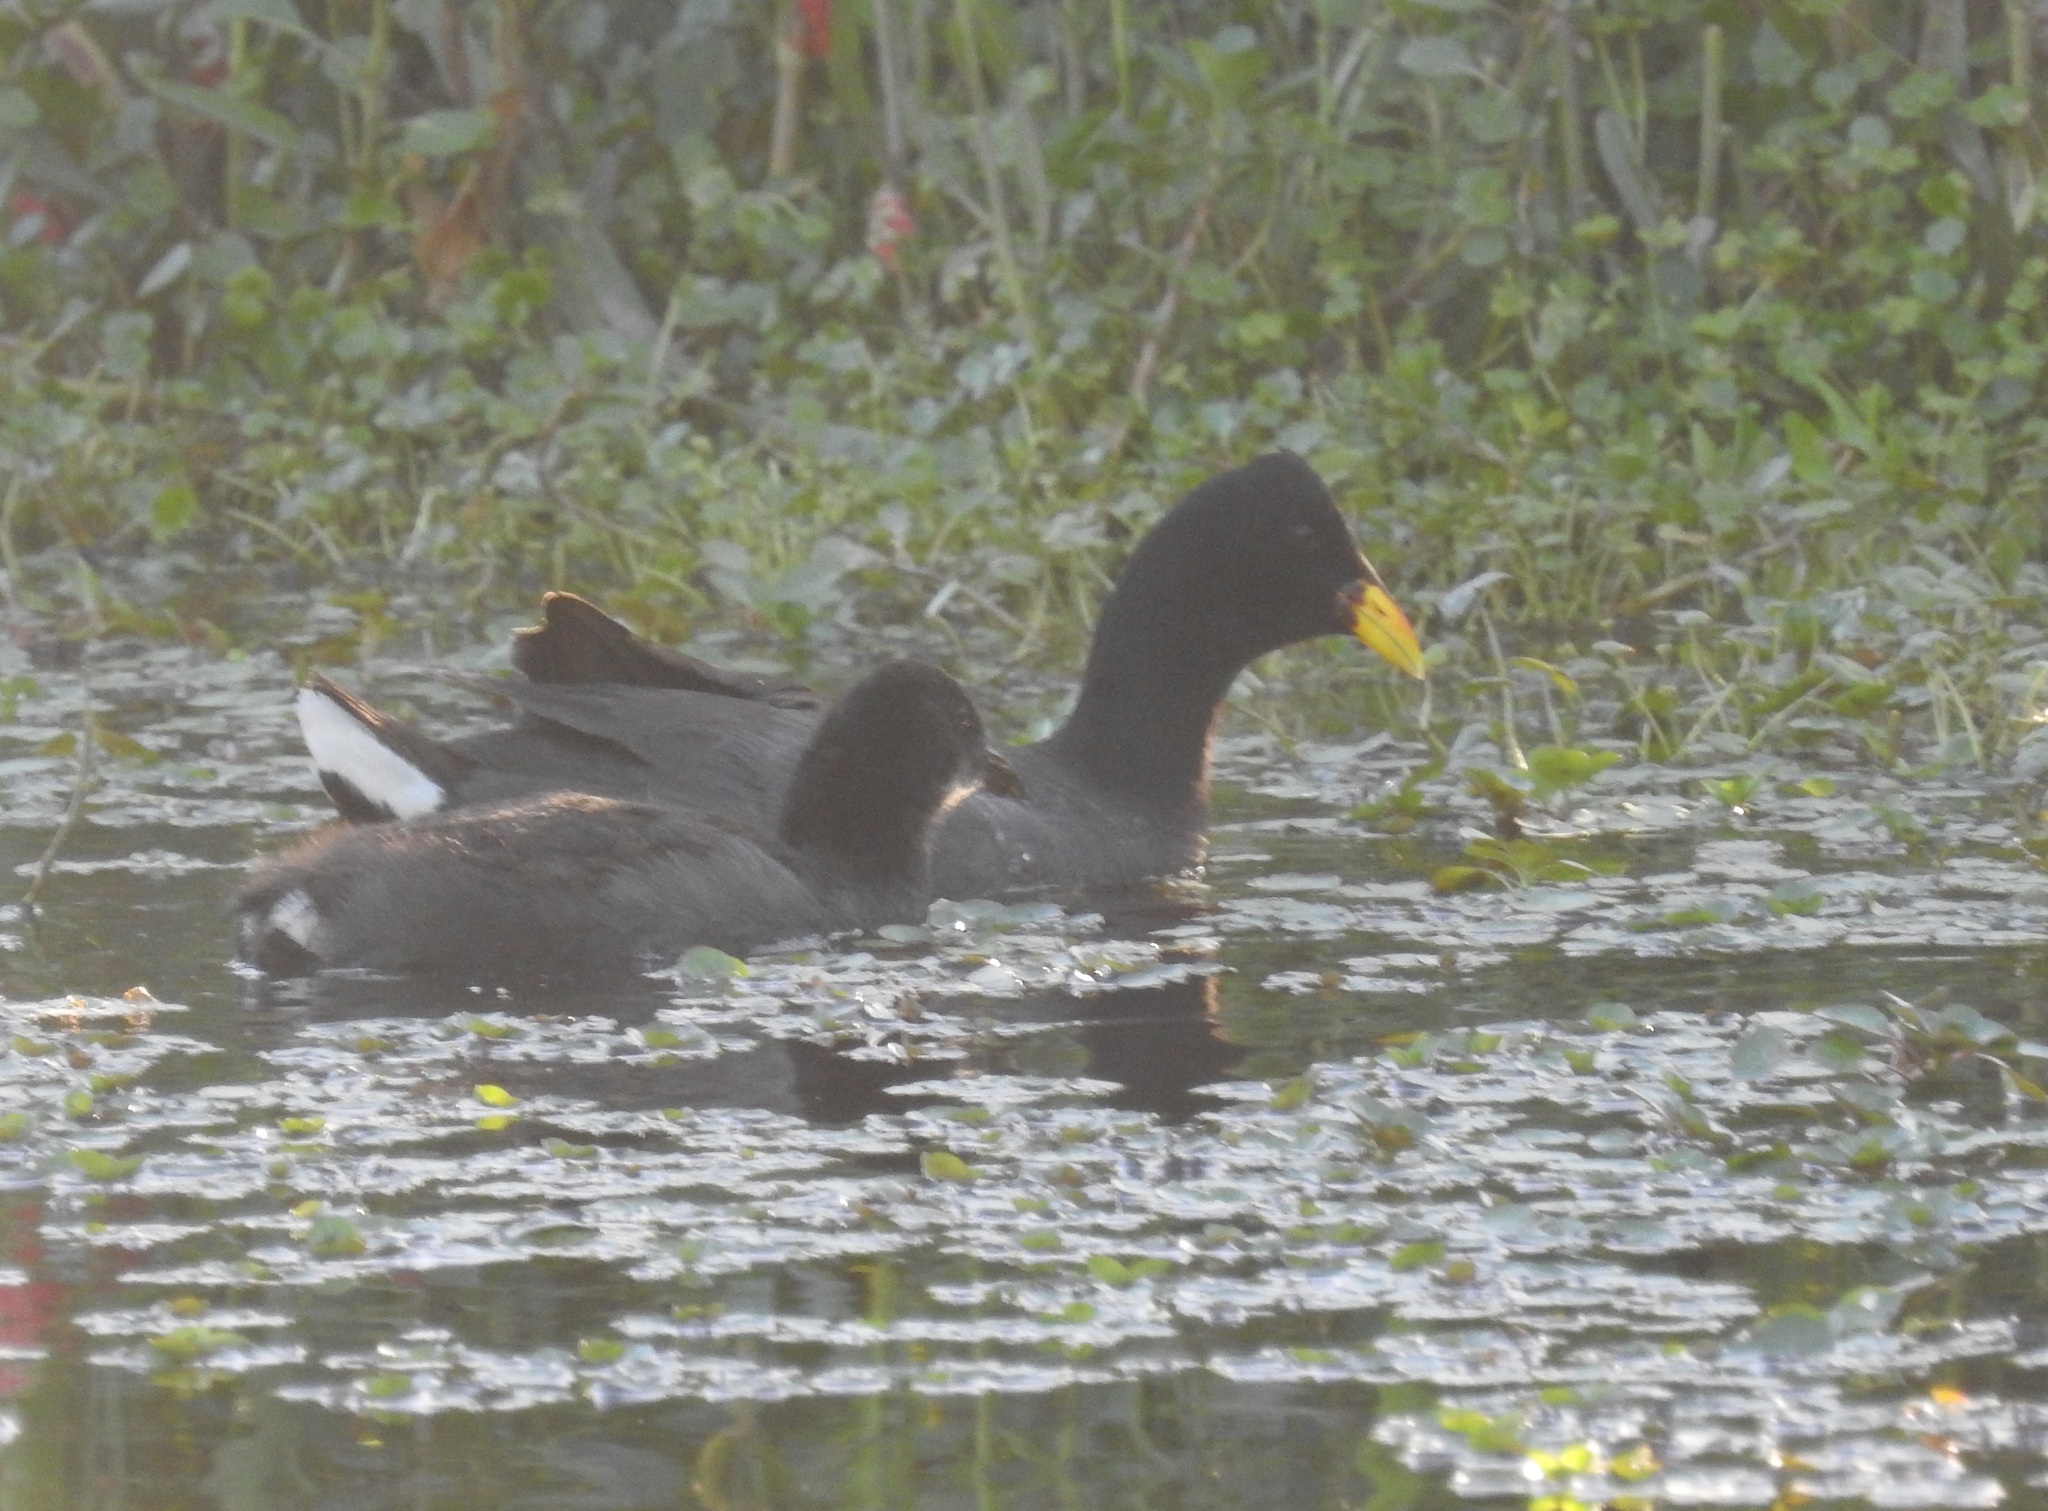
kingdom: Animalia
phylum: Chordata
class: Aves
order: Gruiformes
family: Rallidae
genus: Fulica
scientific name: Fulica rufifrons
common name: Red-fronted coot
